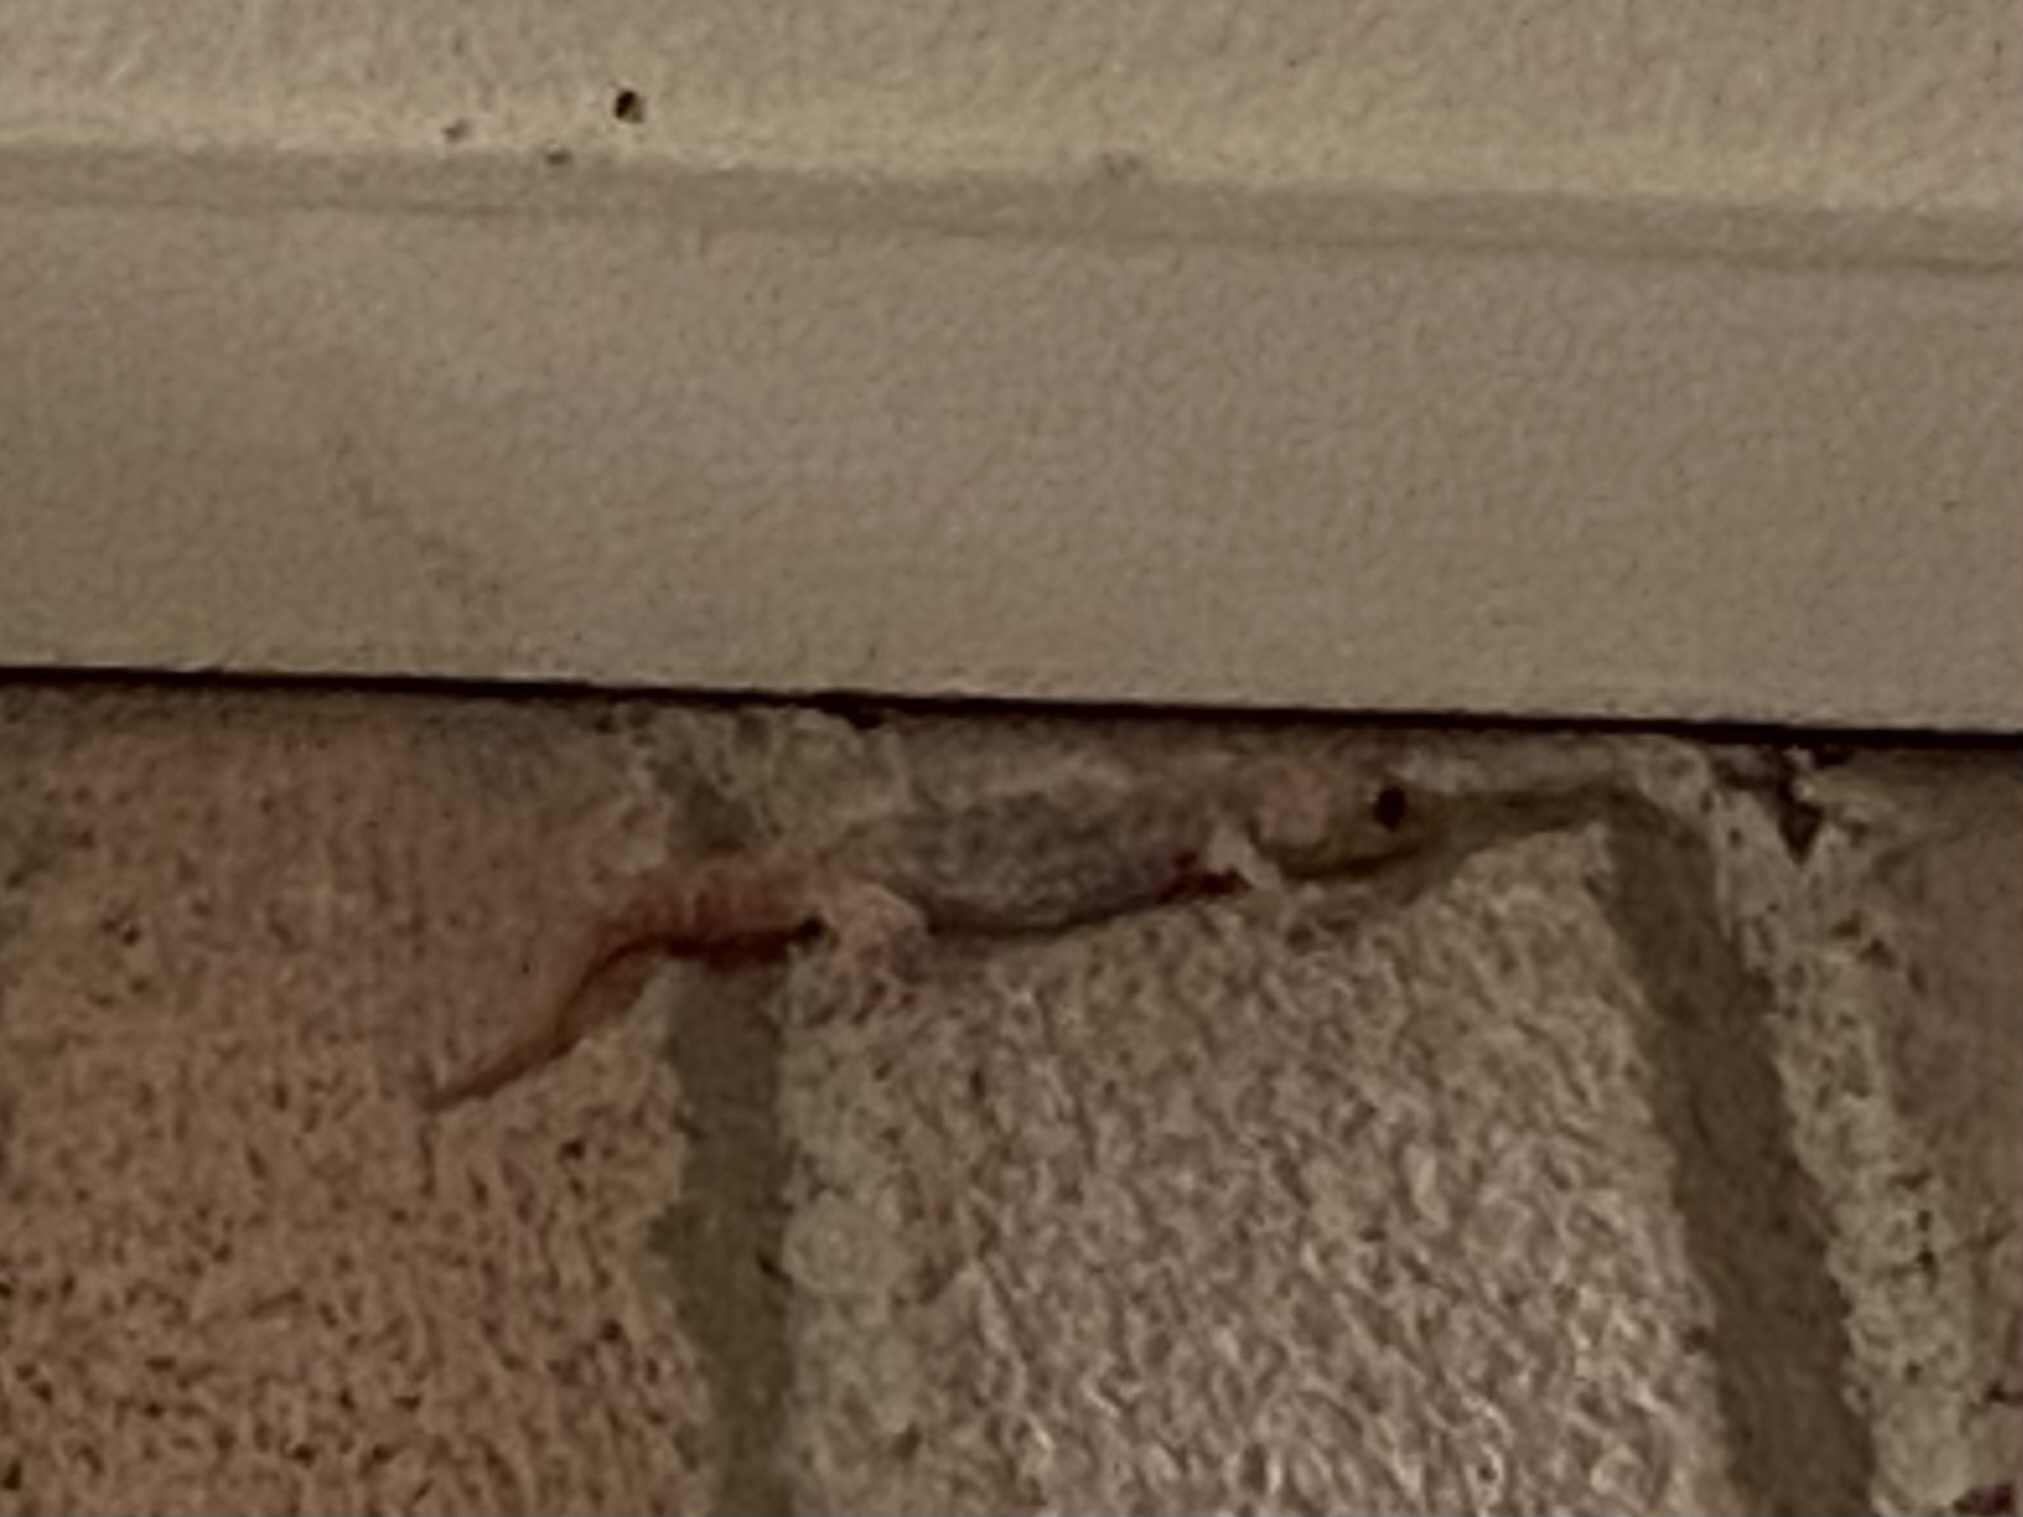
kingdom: Animalia
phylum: Chordata
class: Squamata
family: Gekkonidae
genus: Hemidactylus
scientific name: Hemidactylus turcicus
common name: Turkish gecko
